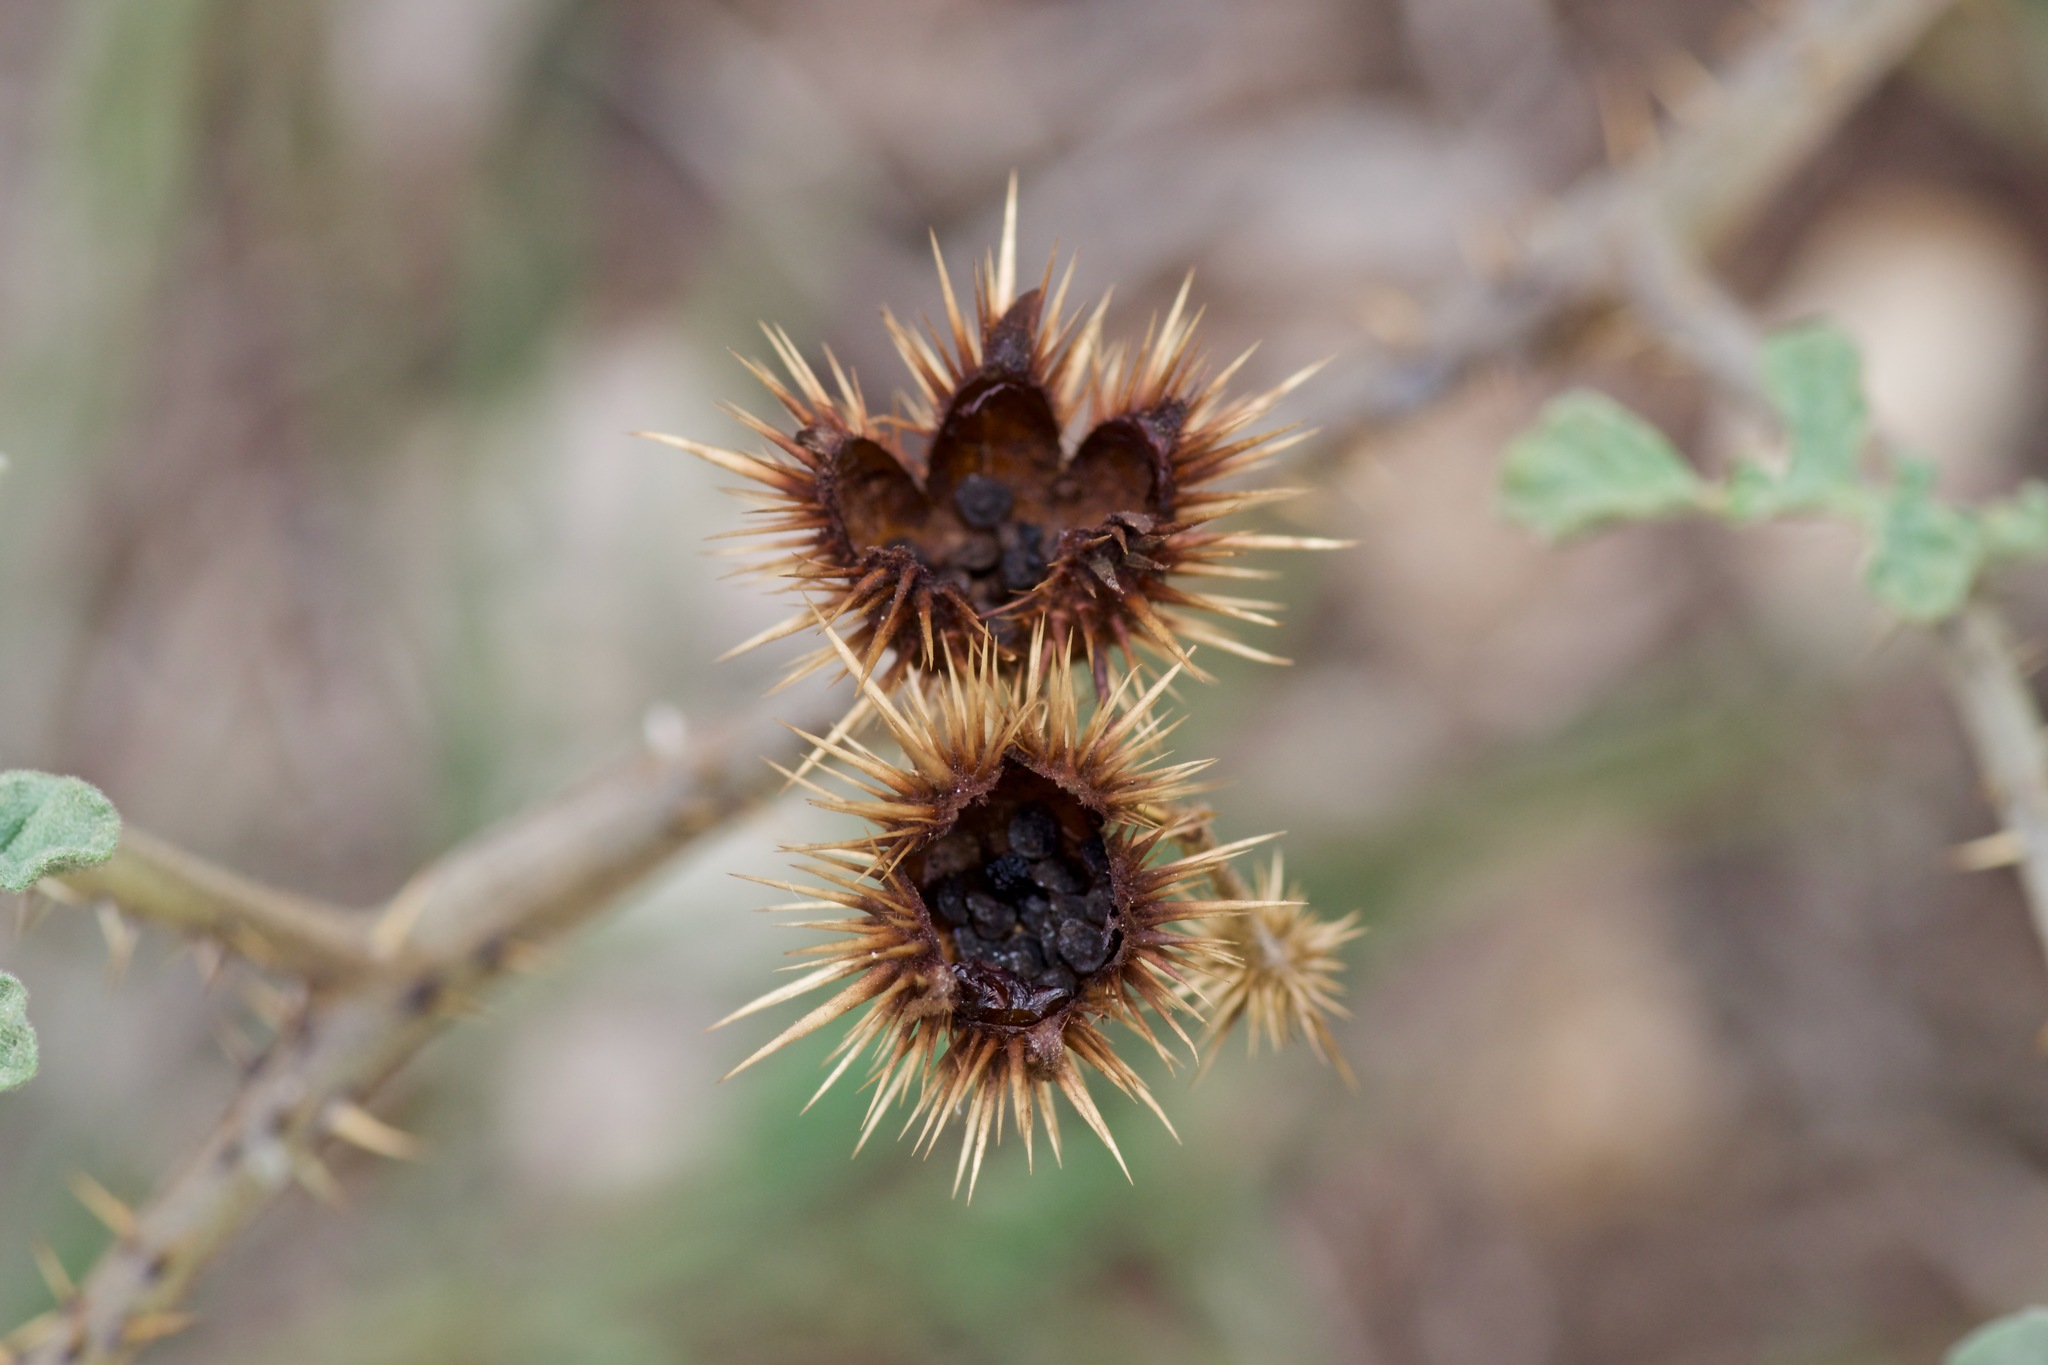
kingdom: Plantae
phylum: Tracheophyta
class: Magnoliopsida
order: Solanales
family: Solanaceae
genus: Solanum
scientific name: Solanum angustifolium
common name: Buffalobur nightshade
